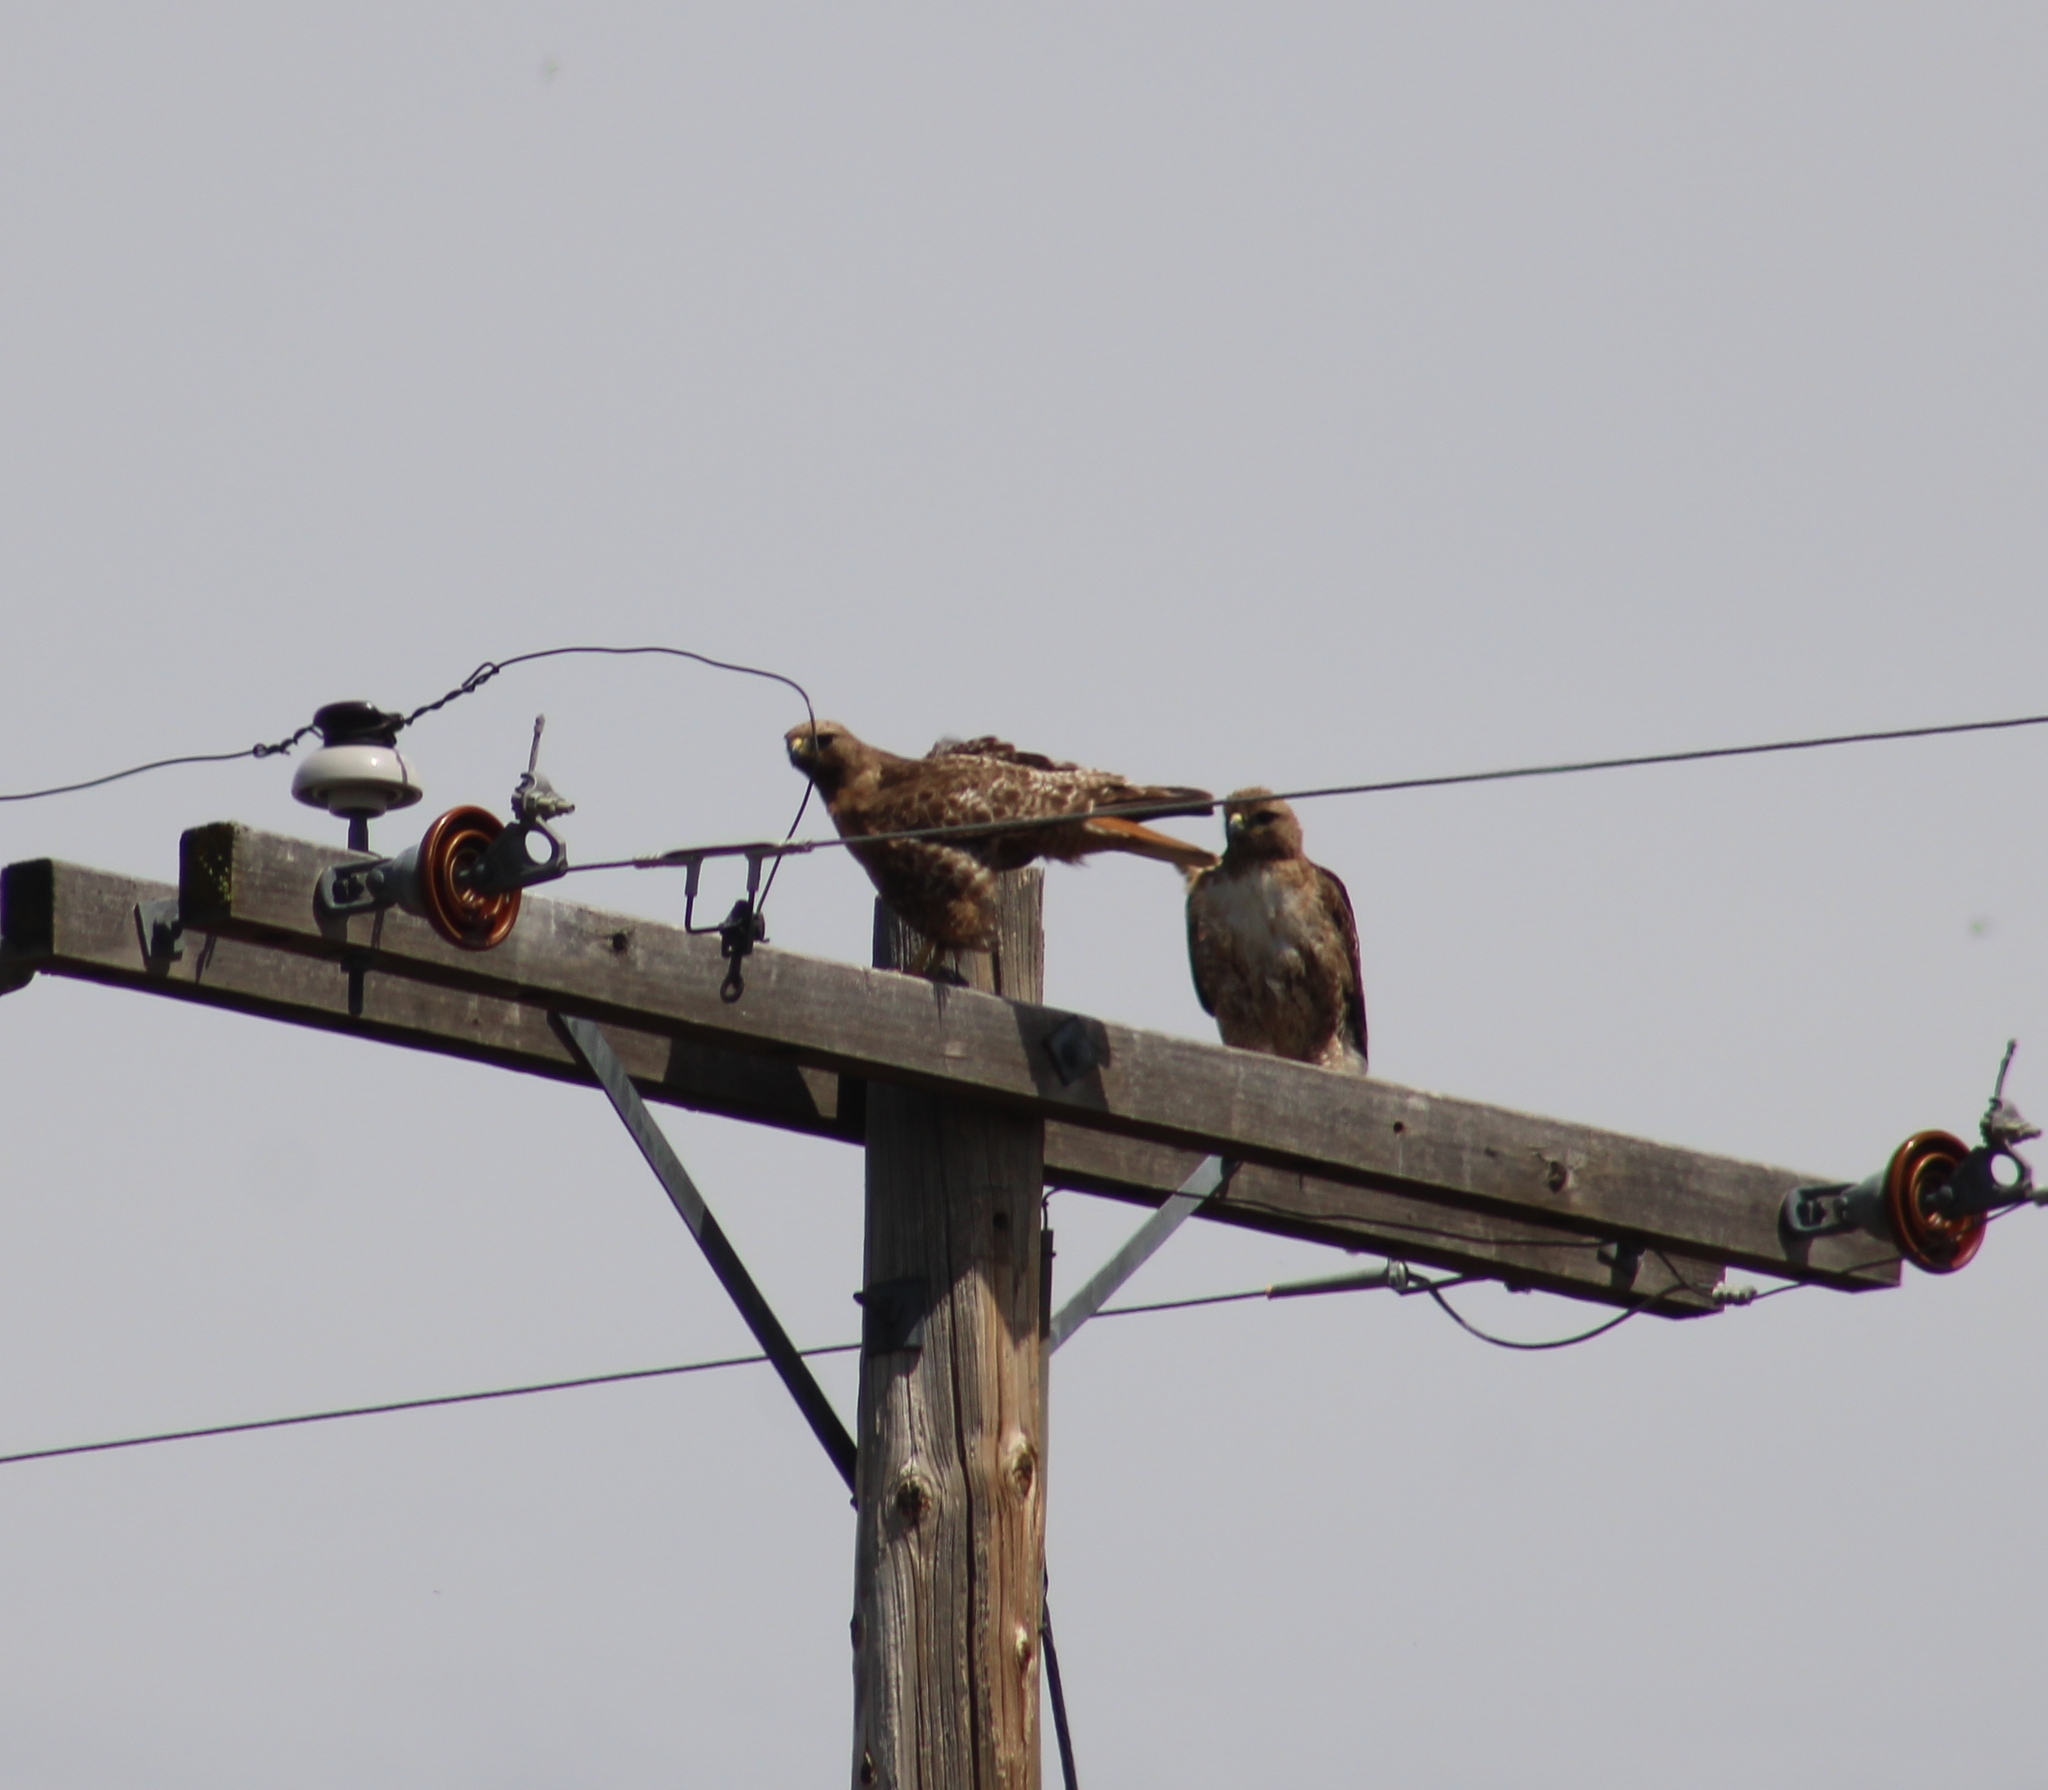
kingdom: Animalia
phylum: Chordata
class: Aves
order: Accipitriformes
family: Accipitridae
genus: Buteo
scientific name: Buteo jamaicensis
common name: Red-tailed hawk
